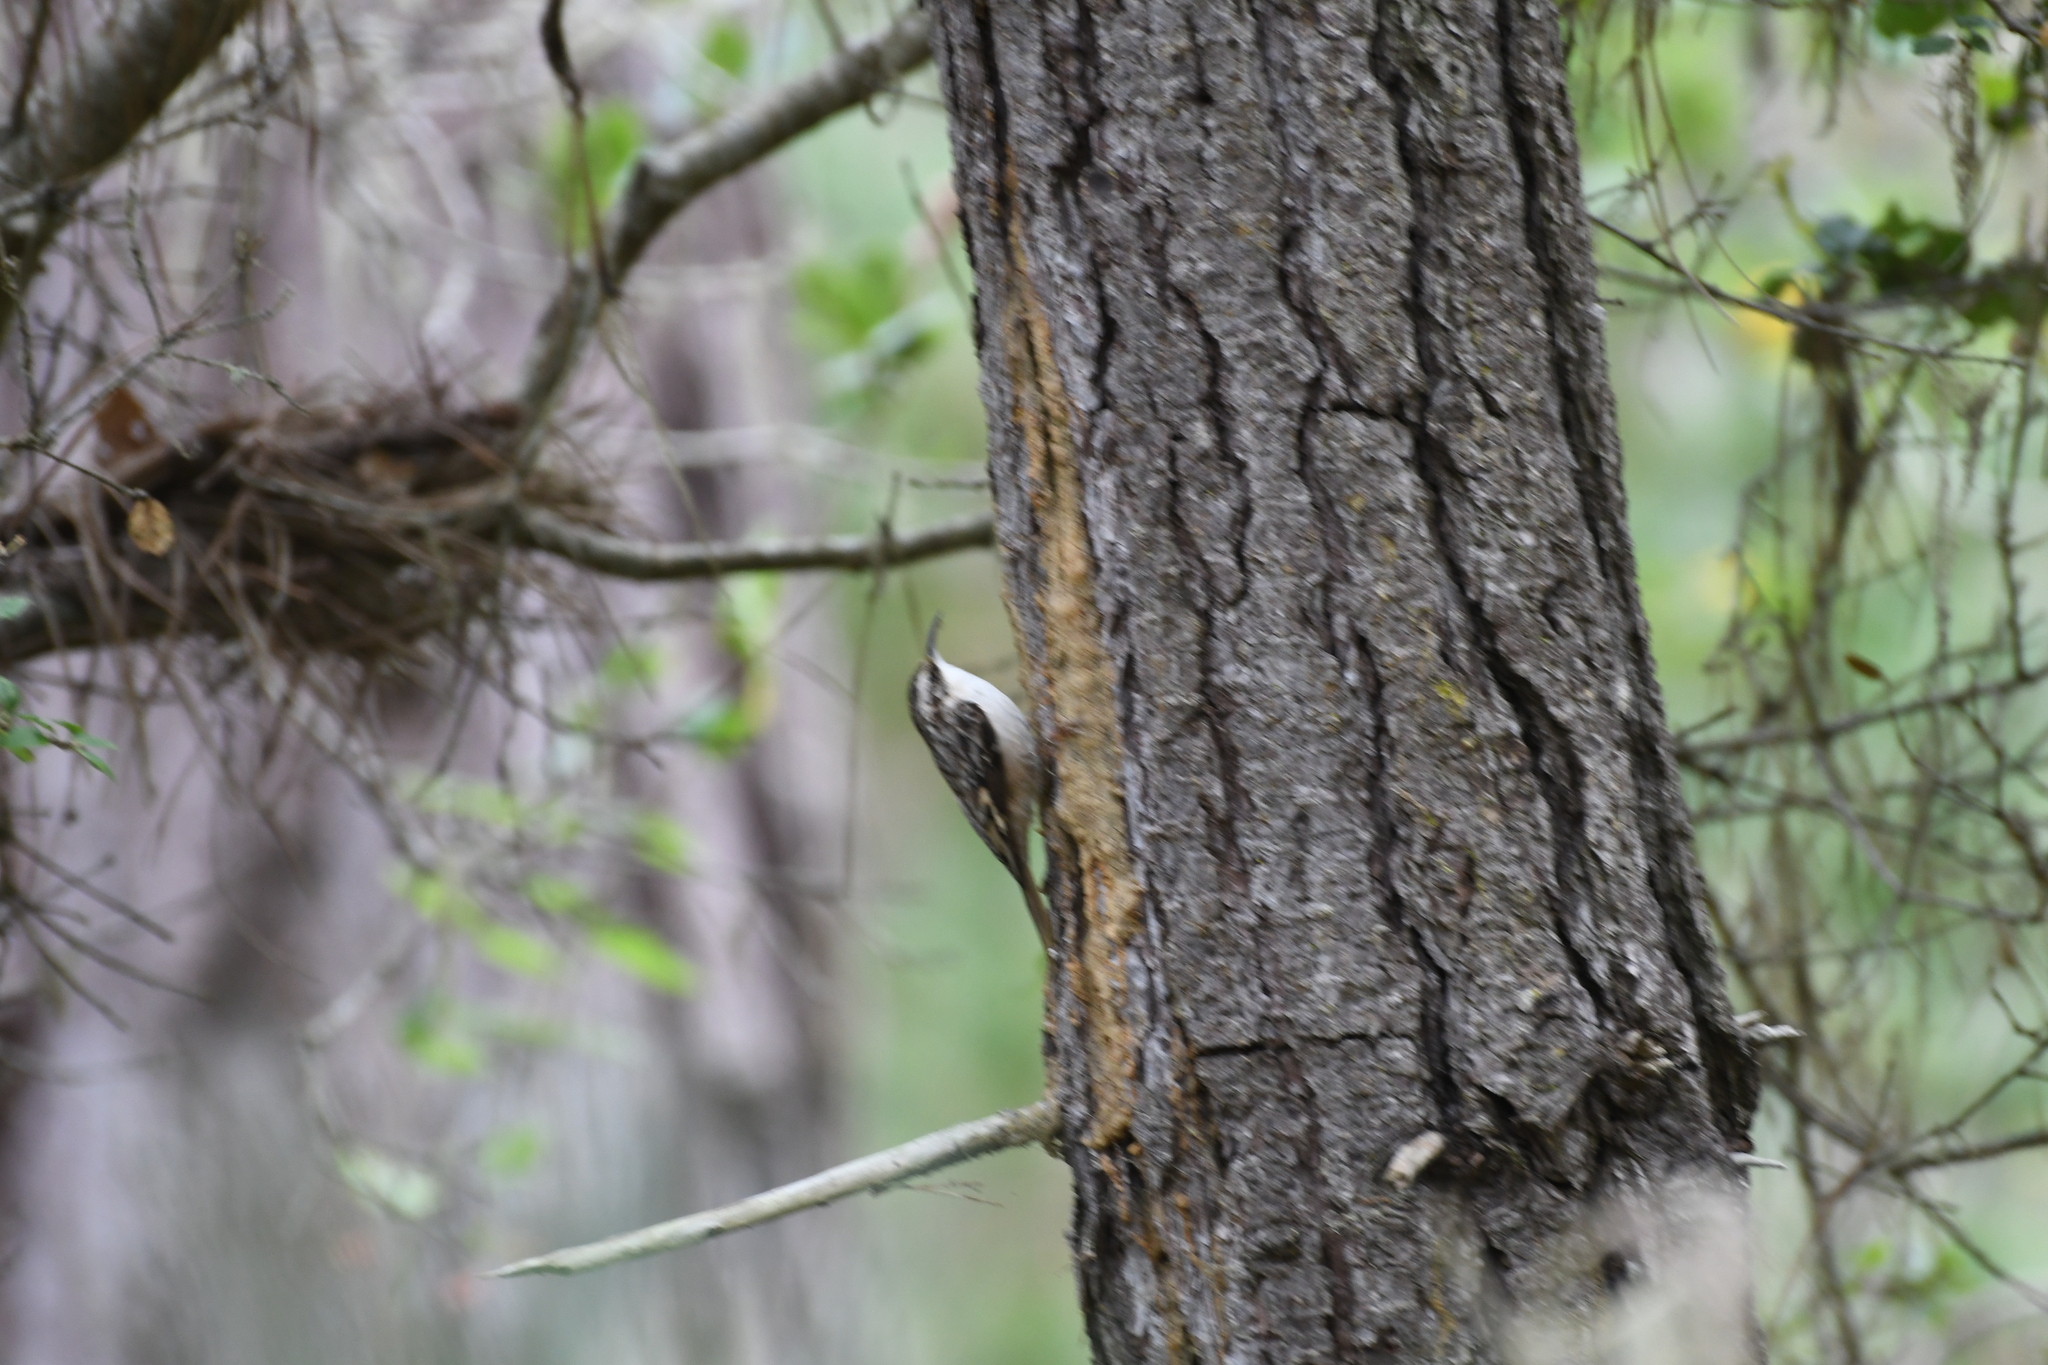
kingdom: Animalia
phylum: Chordata
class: Aves
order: Passeriformes
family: Certhiidae
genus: Certhia
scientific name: Certhia americana
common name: Brown creeper
